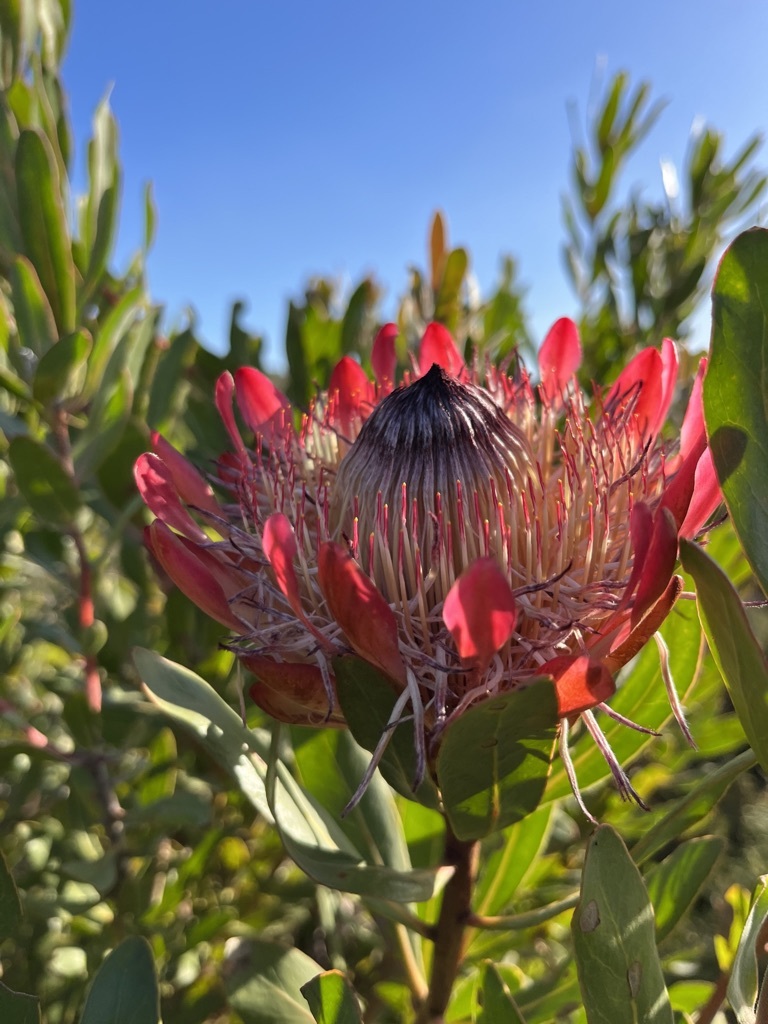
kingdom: Plantae
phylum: Tracheophyta
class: Magnoliopsida
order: Proteales
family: Proteaceae
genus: Protea
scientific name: Protea susannae
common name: Foetid-leaf sugarbush
